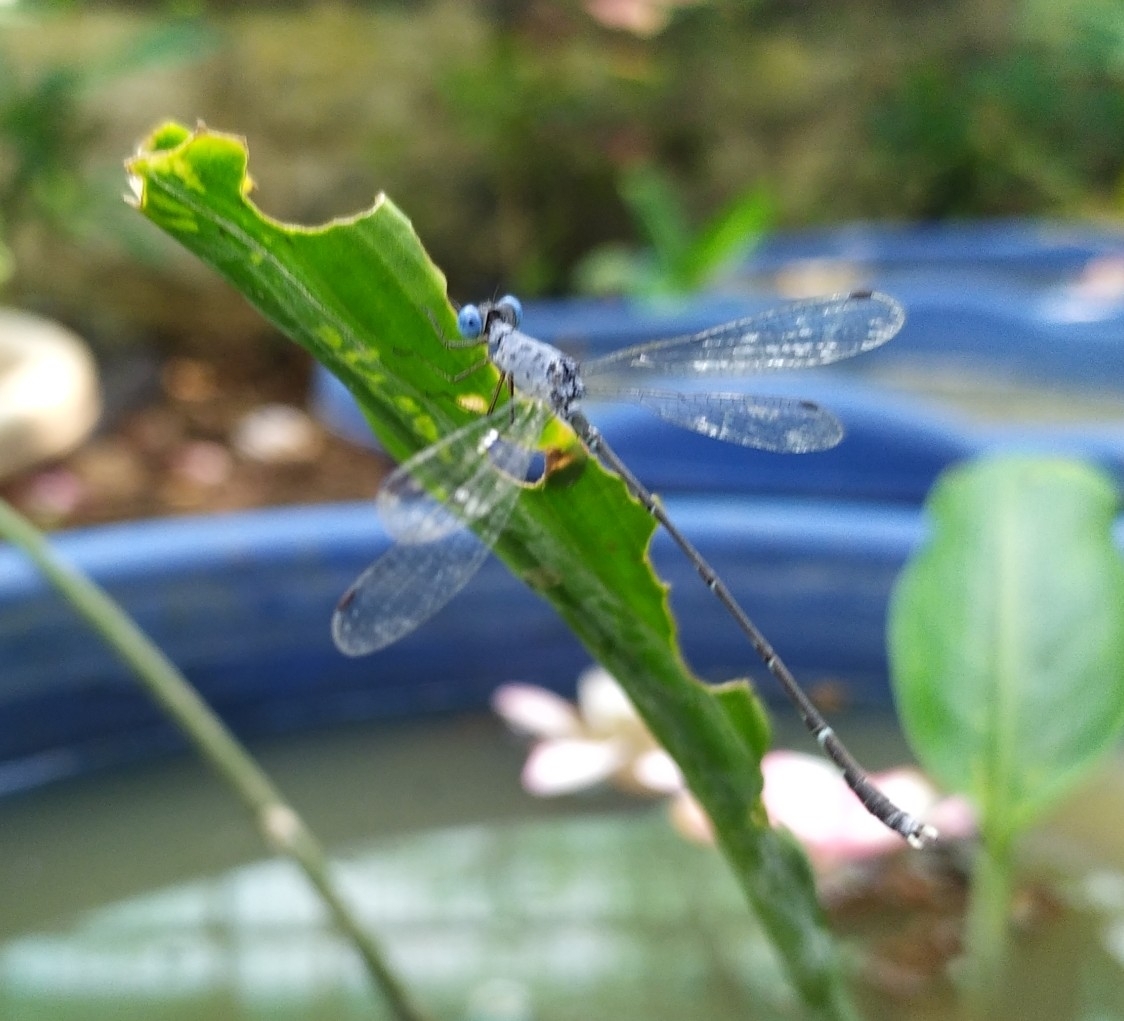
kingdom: Animalia
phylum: Arthropoda
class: Insecta
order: Odonata
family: Lestidae
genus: Lestes
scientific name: Lestes praemorsus
